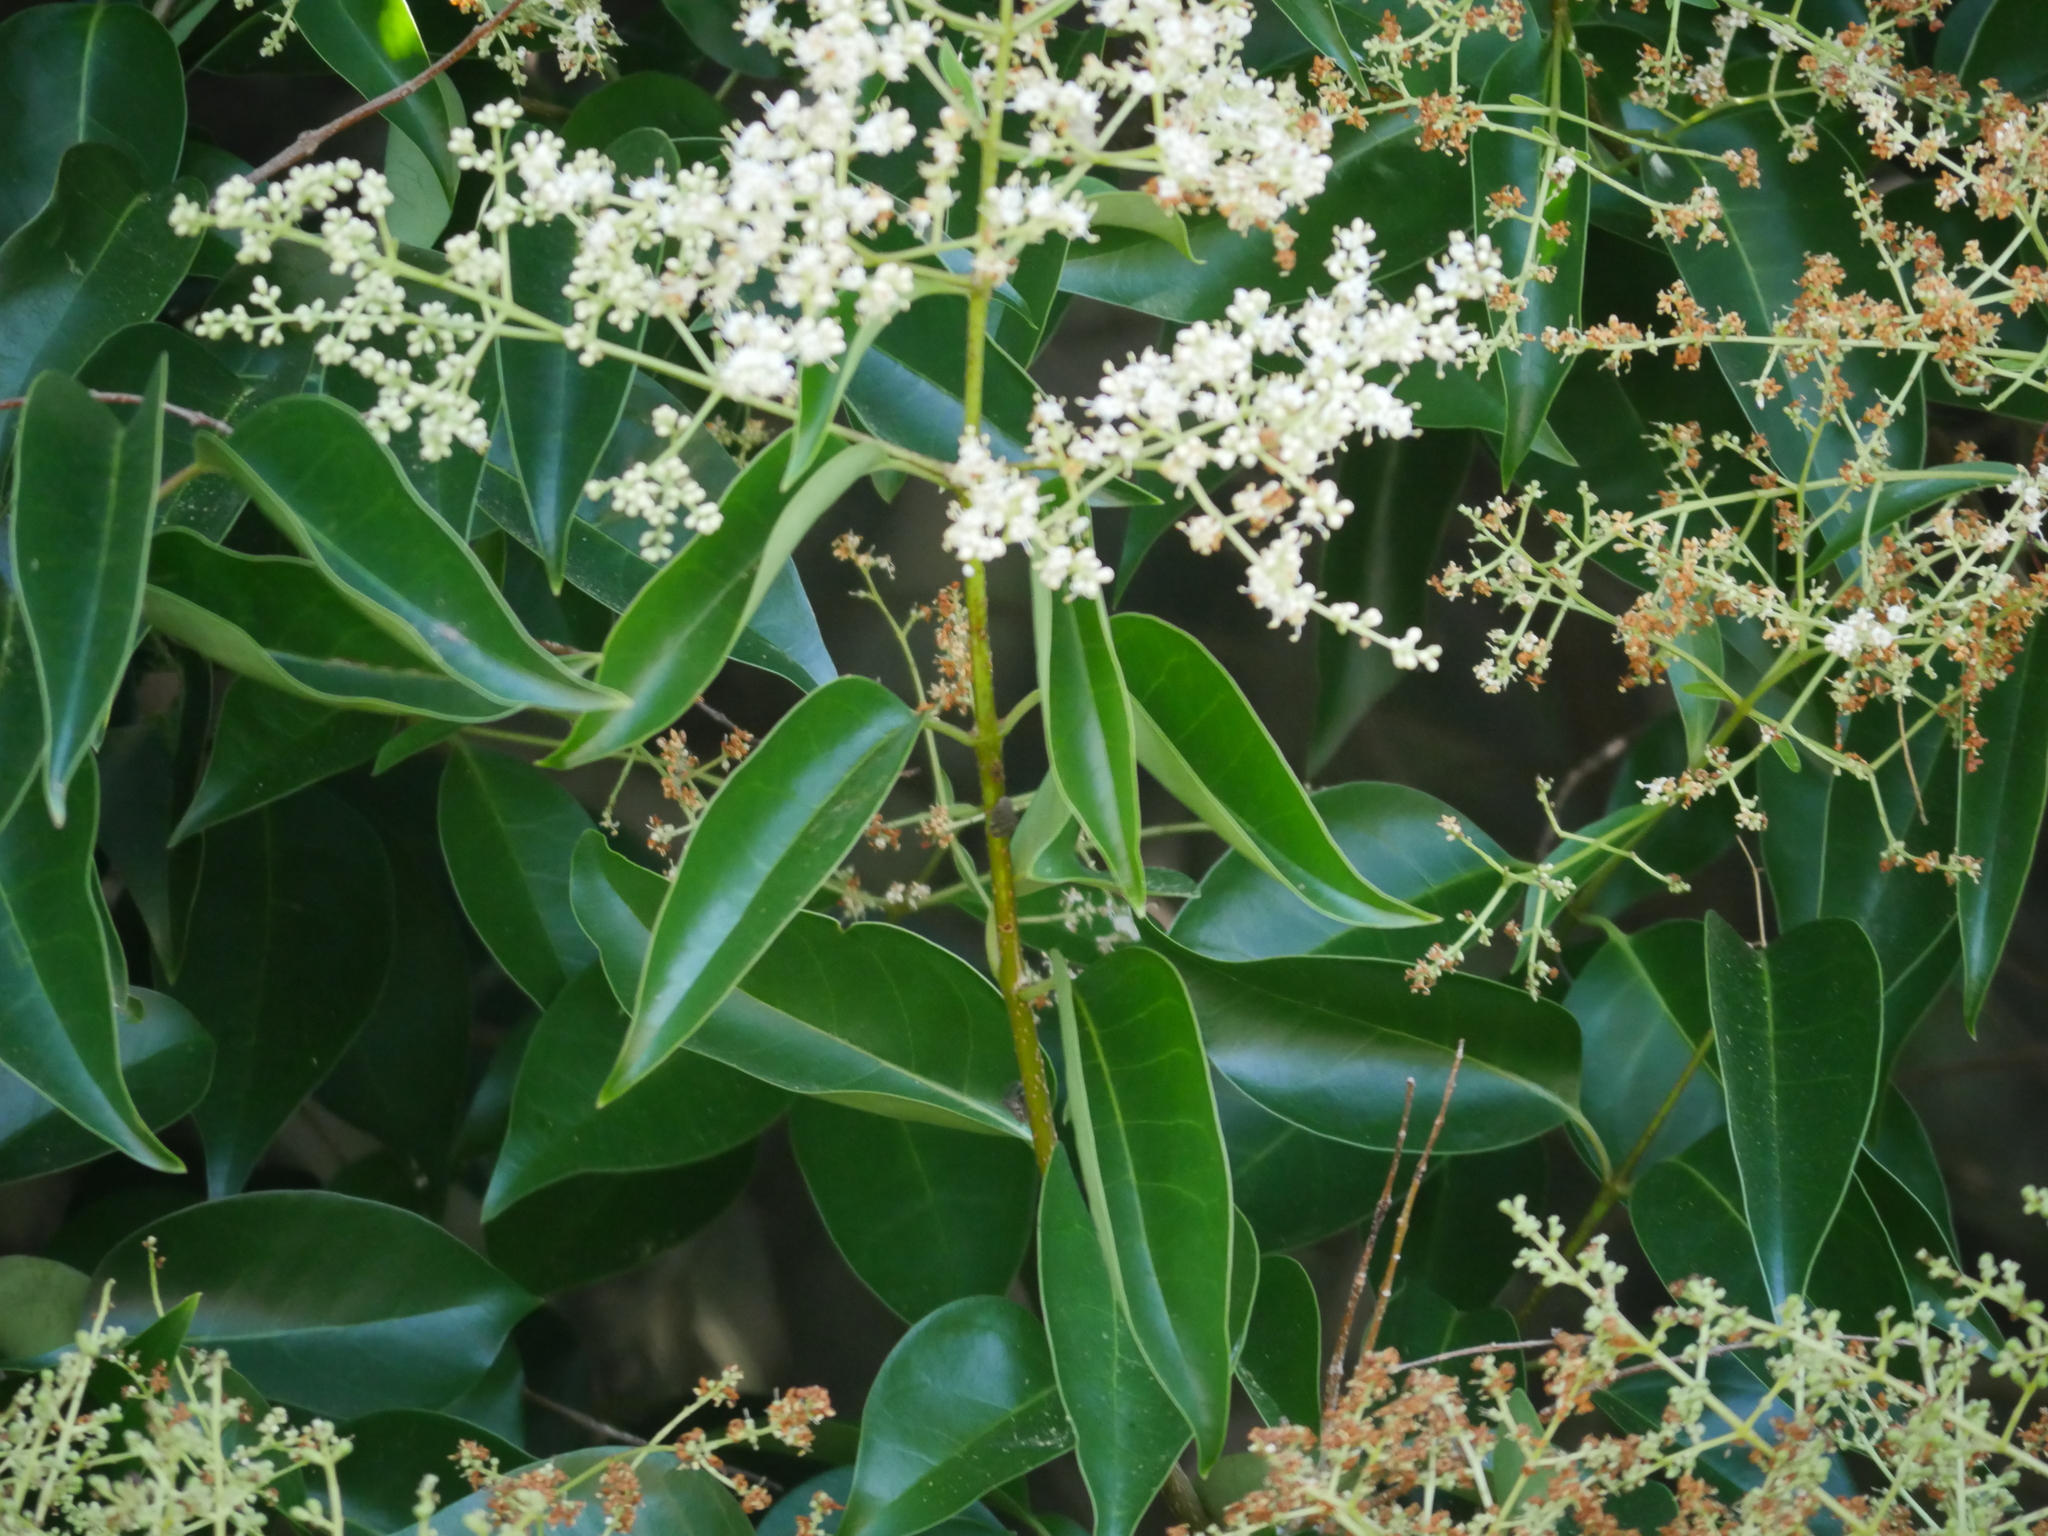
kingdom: Plantae
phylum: Tracheophyta
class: Magnoliopsida
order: Lamiales
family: Oleaceae
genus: Ligustrum
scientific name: Ligustrum lucidum
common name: Glossy privet
